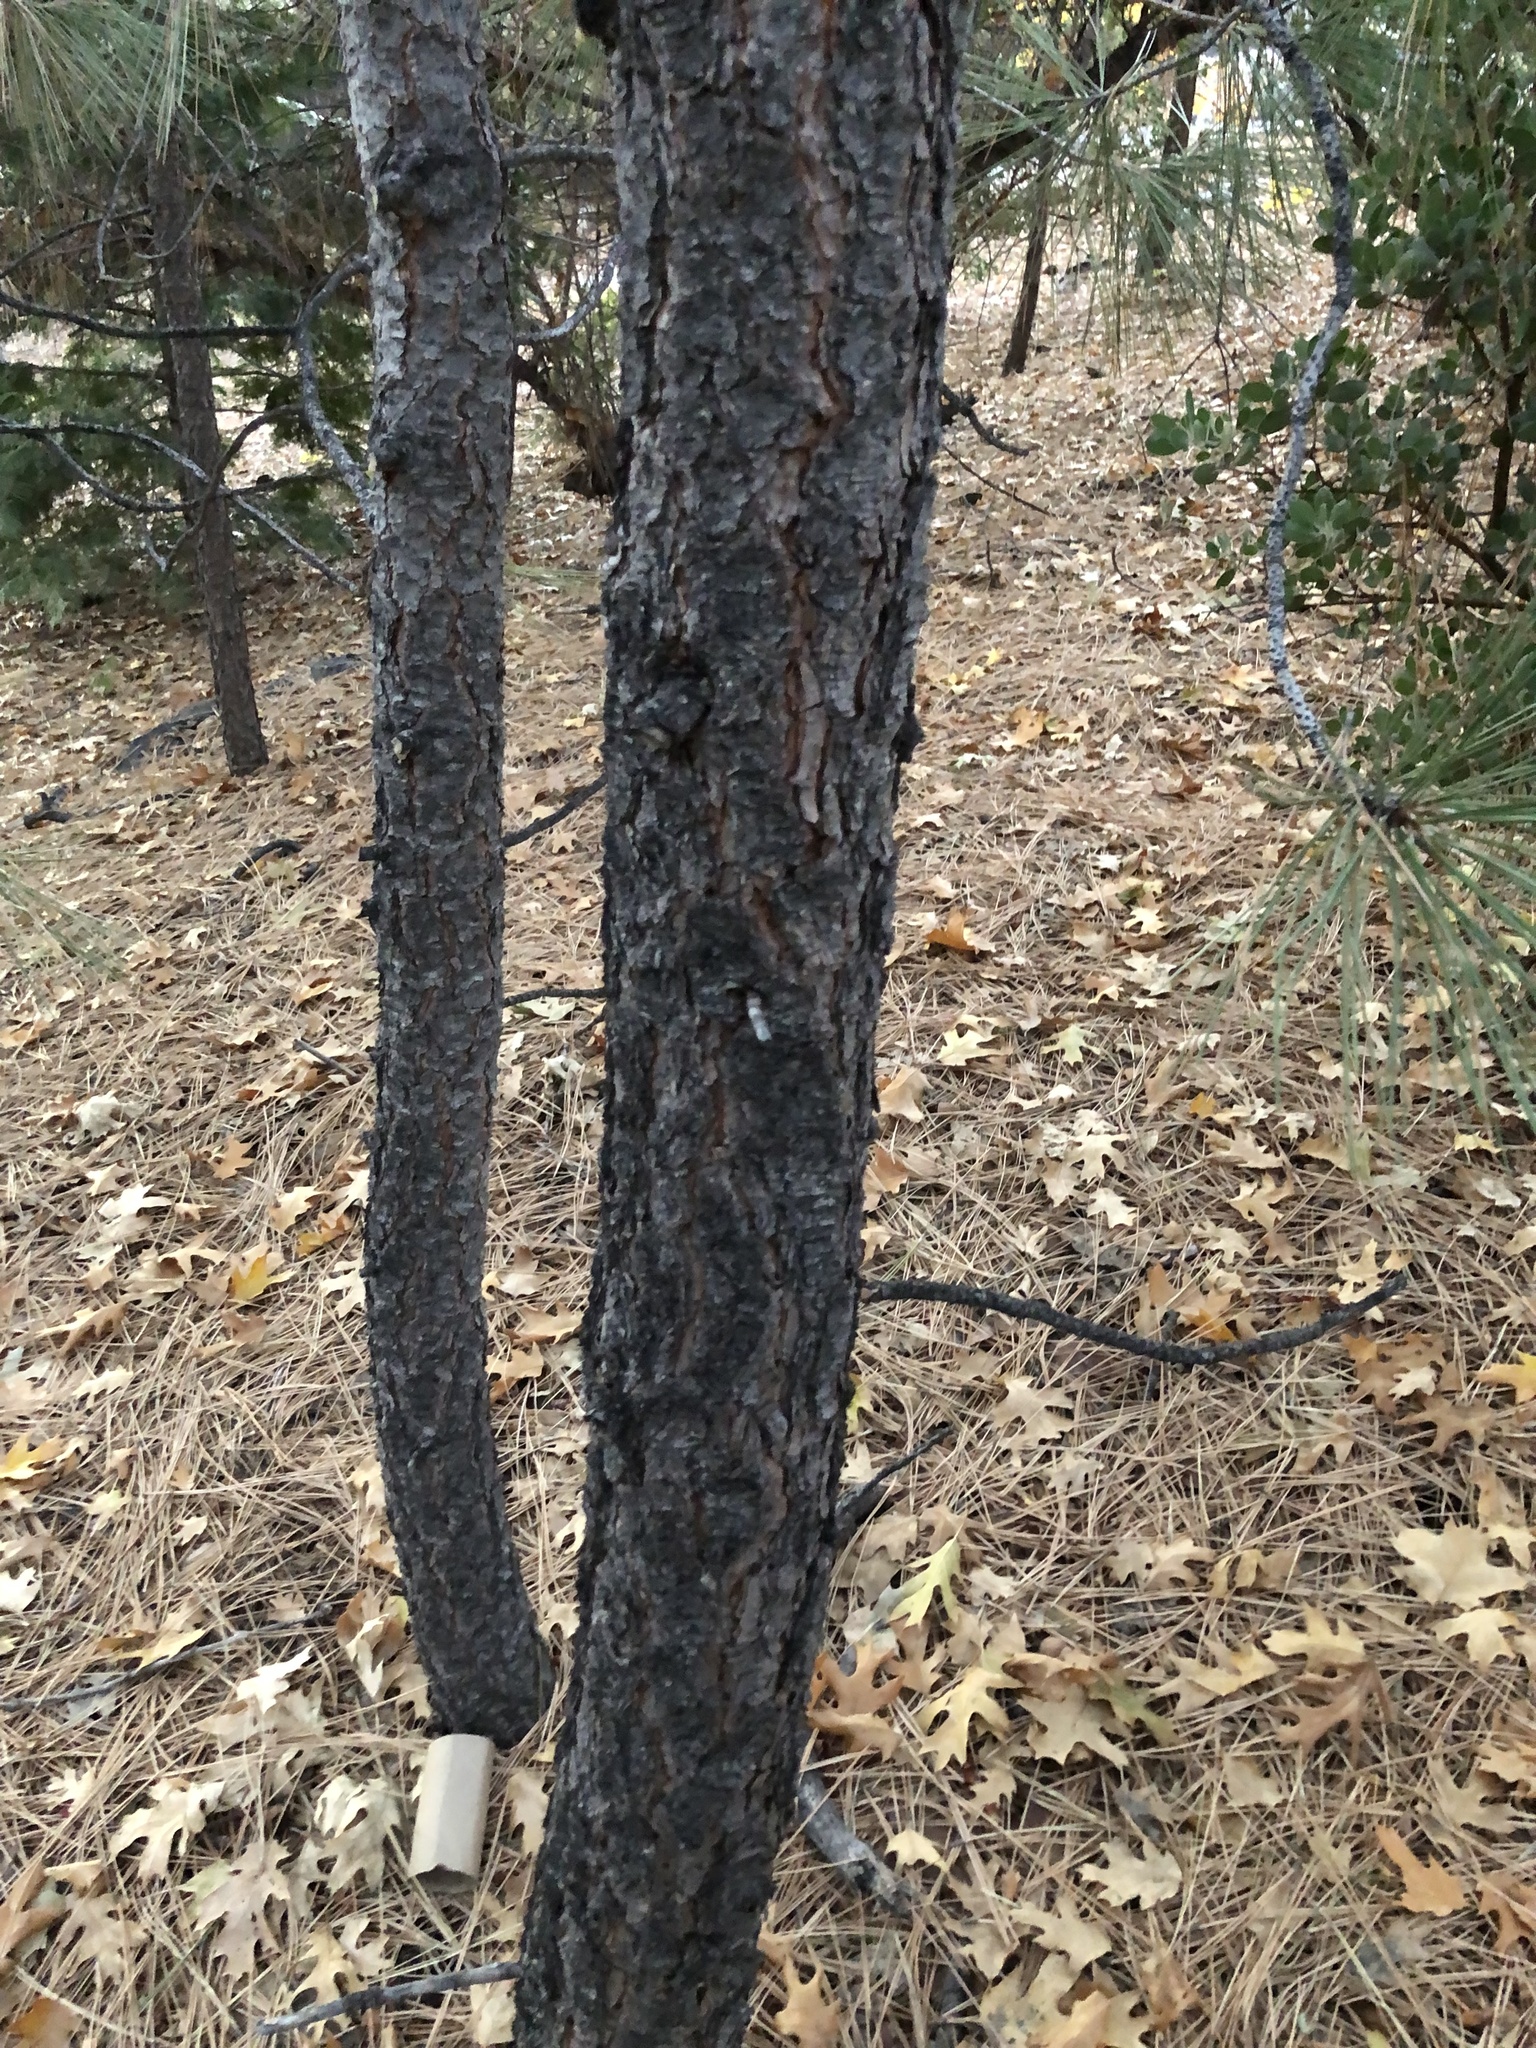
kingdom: Plantae
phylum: Tracheophyta
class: Pinopsida
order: Pinales
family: Pinaceae
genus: Pinus
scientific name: Pinus ponderosa
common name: Western yellow-pine
